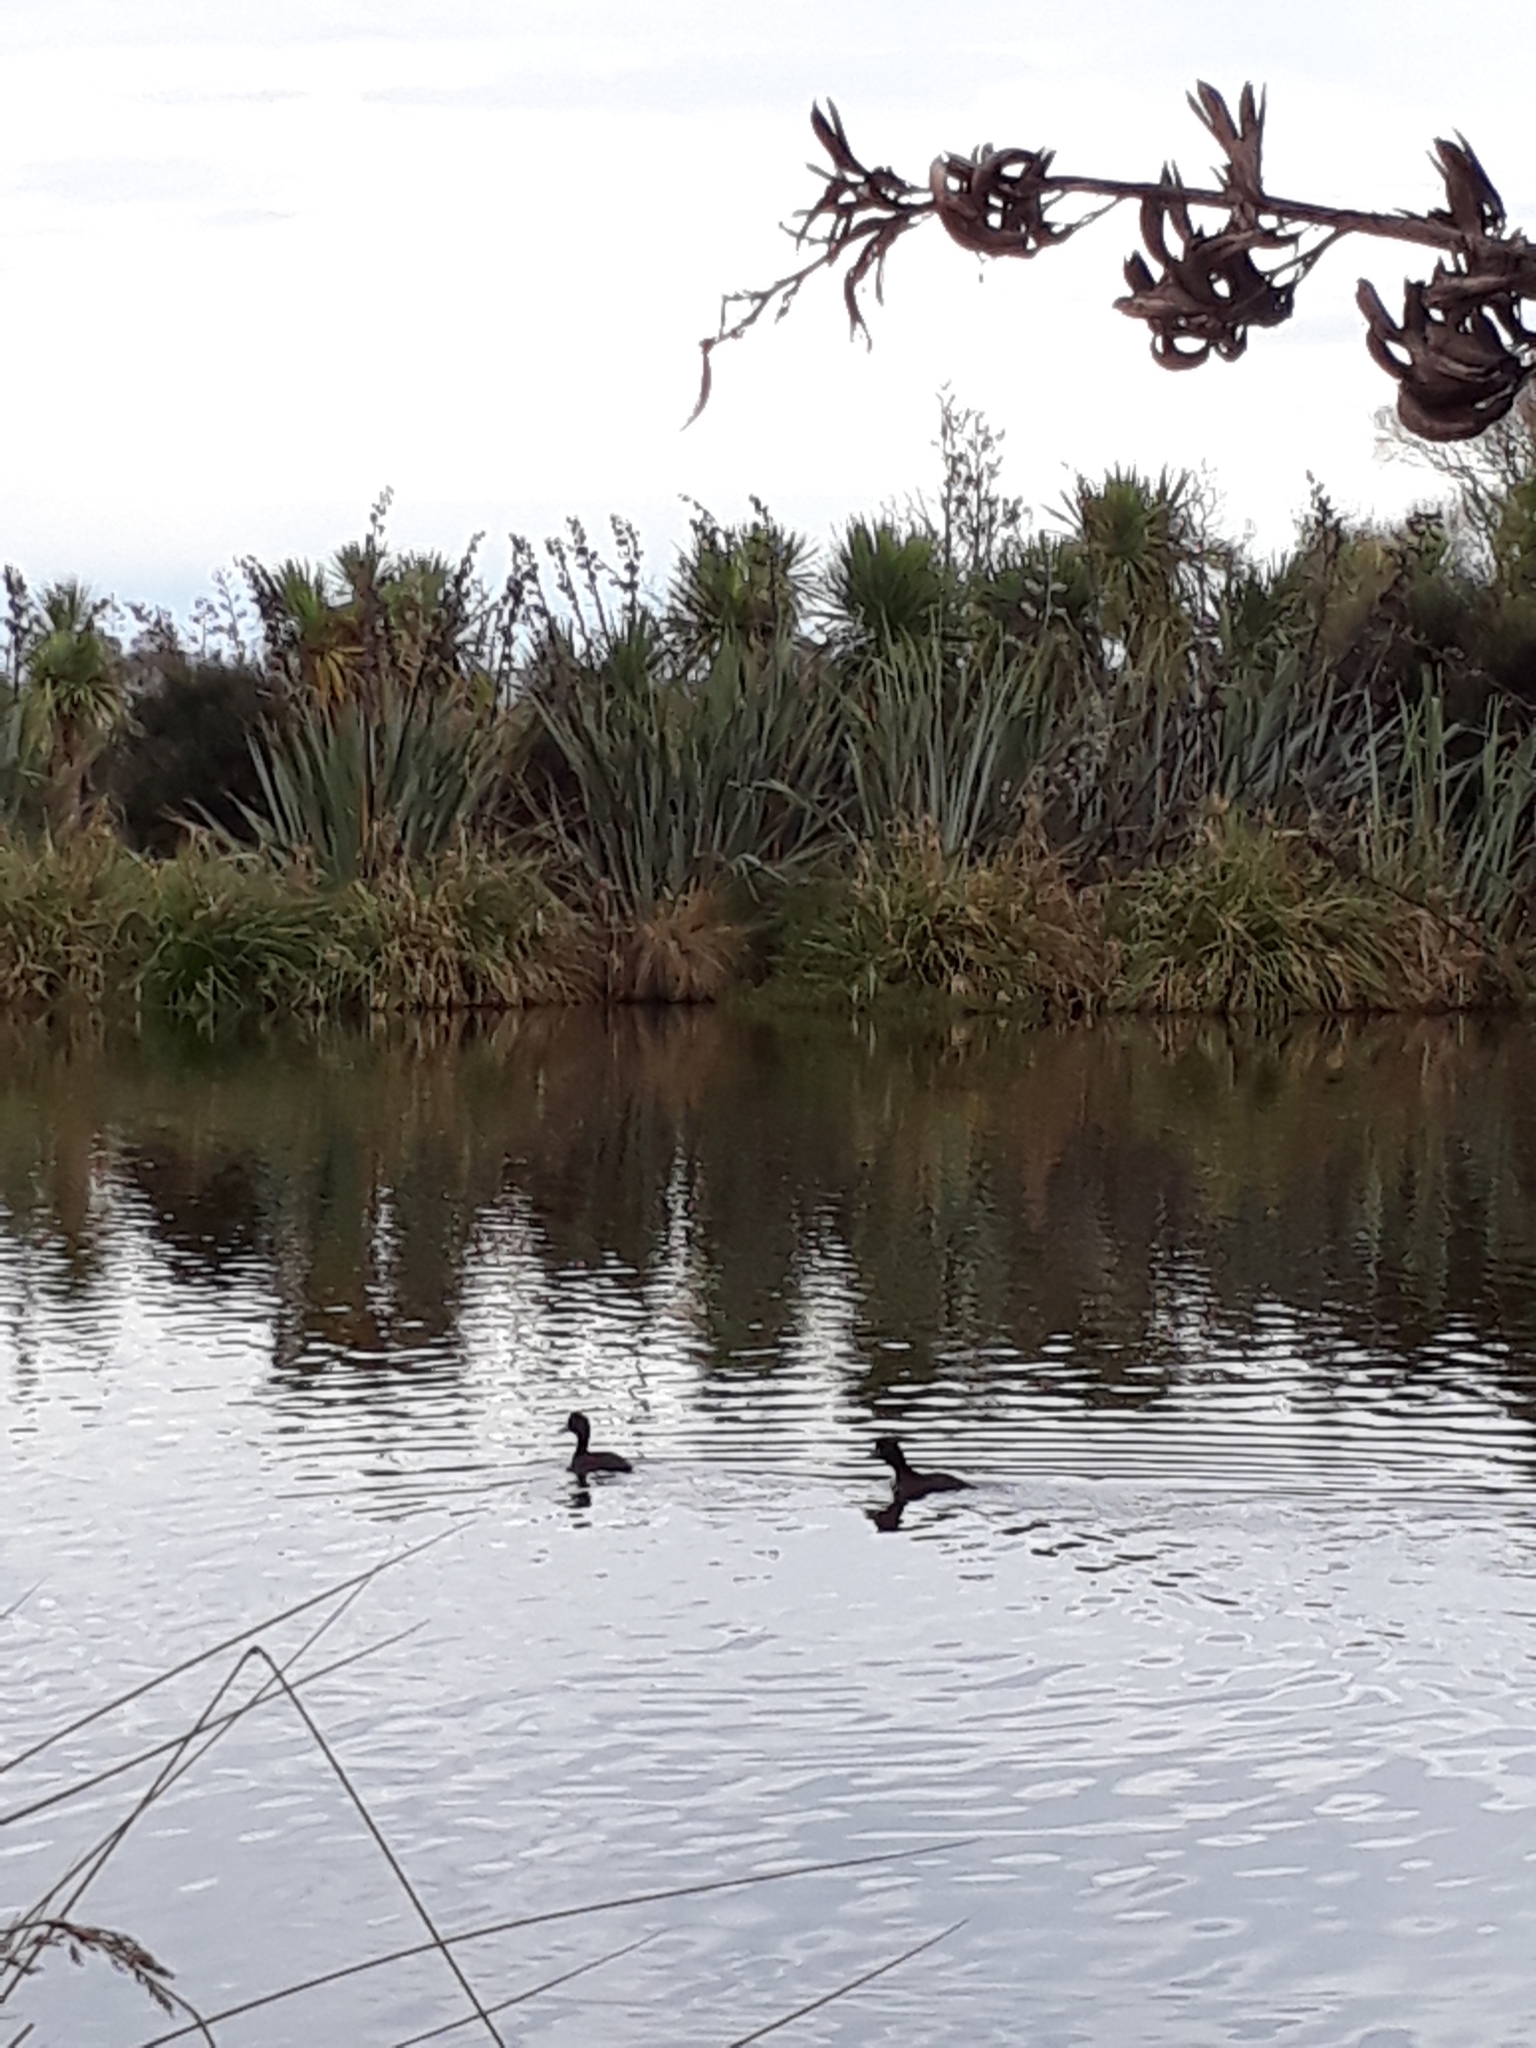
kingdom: Animalia
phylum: Chordata
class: Aves
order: Anseriformes
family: Anatidae
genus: Aythya
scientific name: Aythya novaeseelandiae
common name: New zealand scaup
